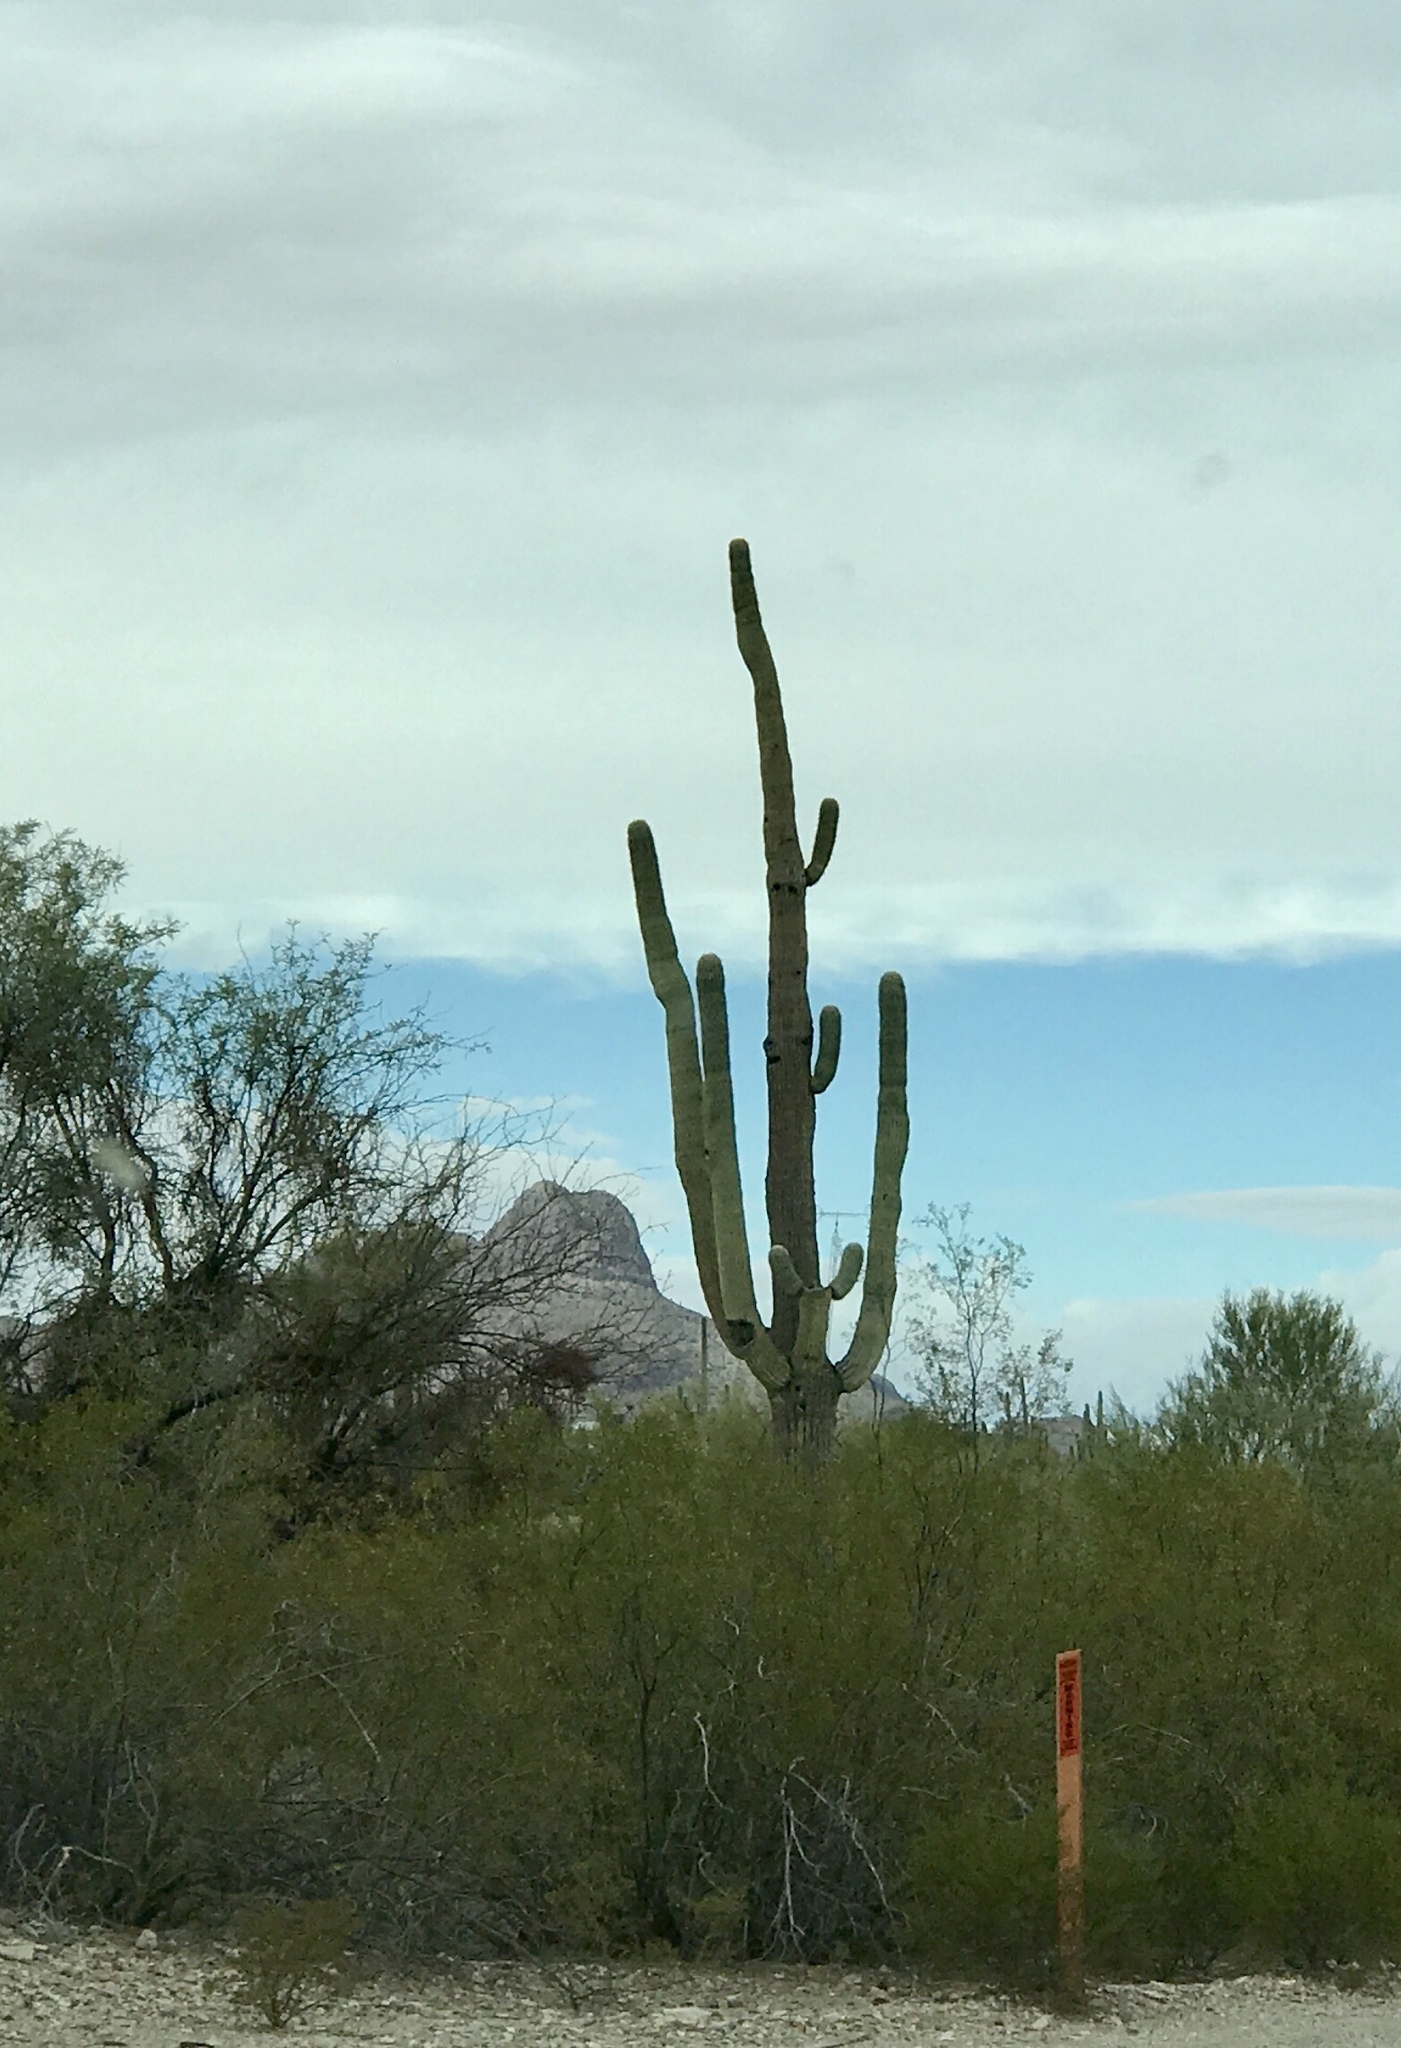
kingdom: Plantae
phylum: Tracheophyta
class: Magnoliopsida
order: Caryophyllales
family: Cactaceae
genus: Carnegiea
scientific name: Carnegiea gigantea
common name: Saguaro
